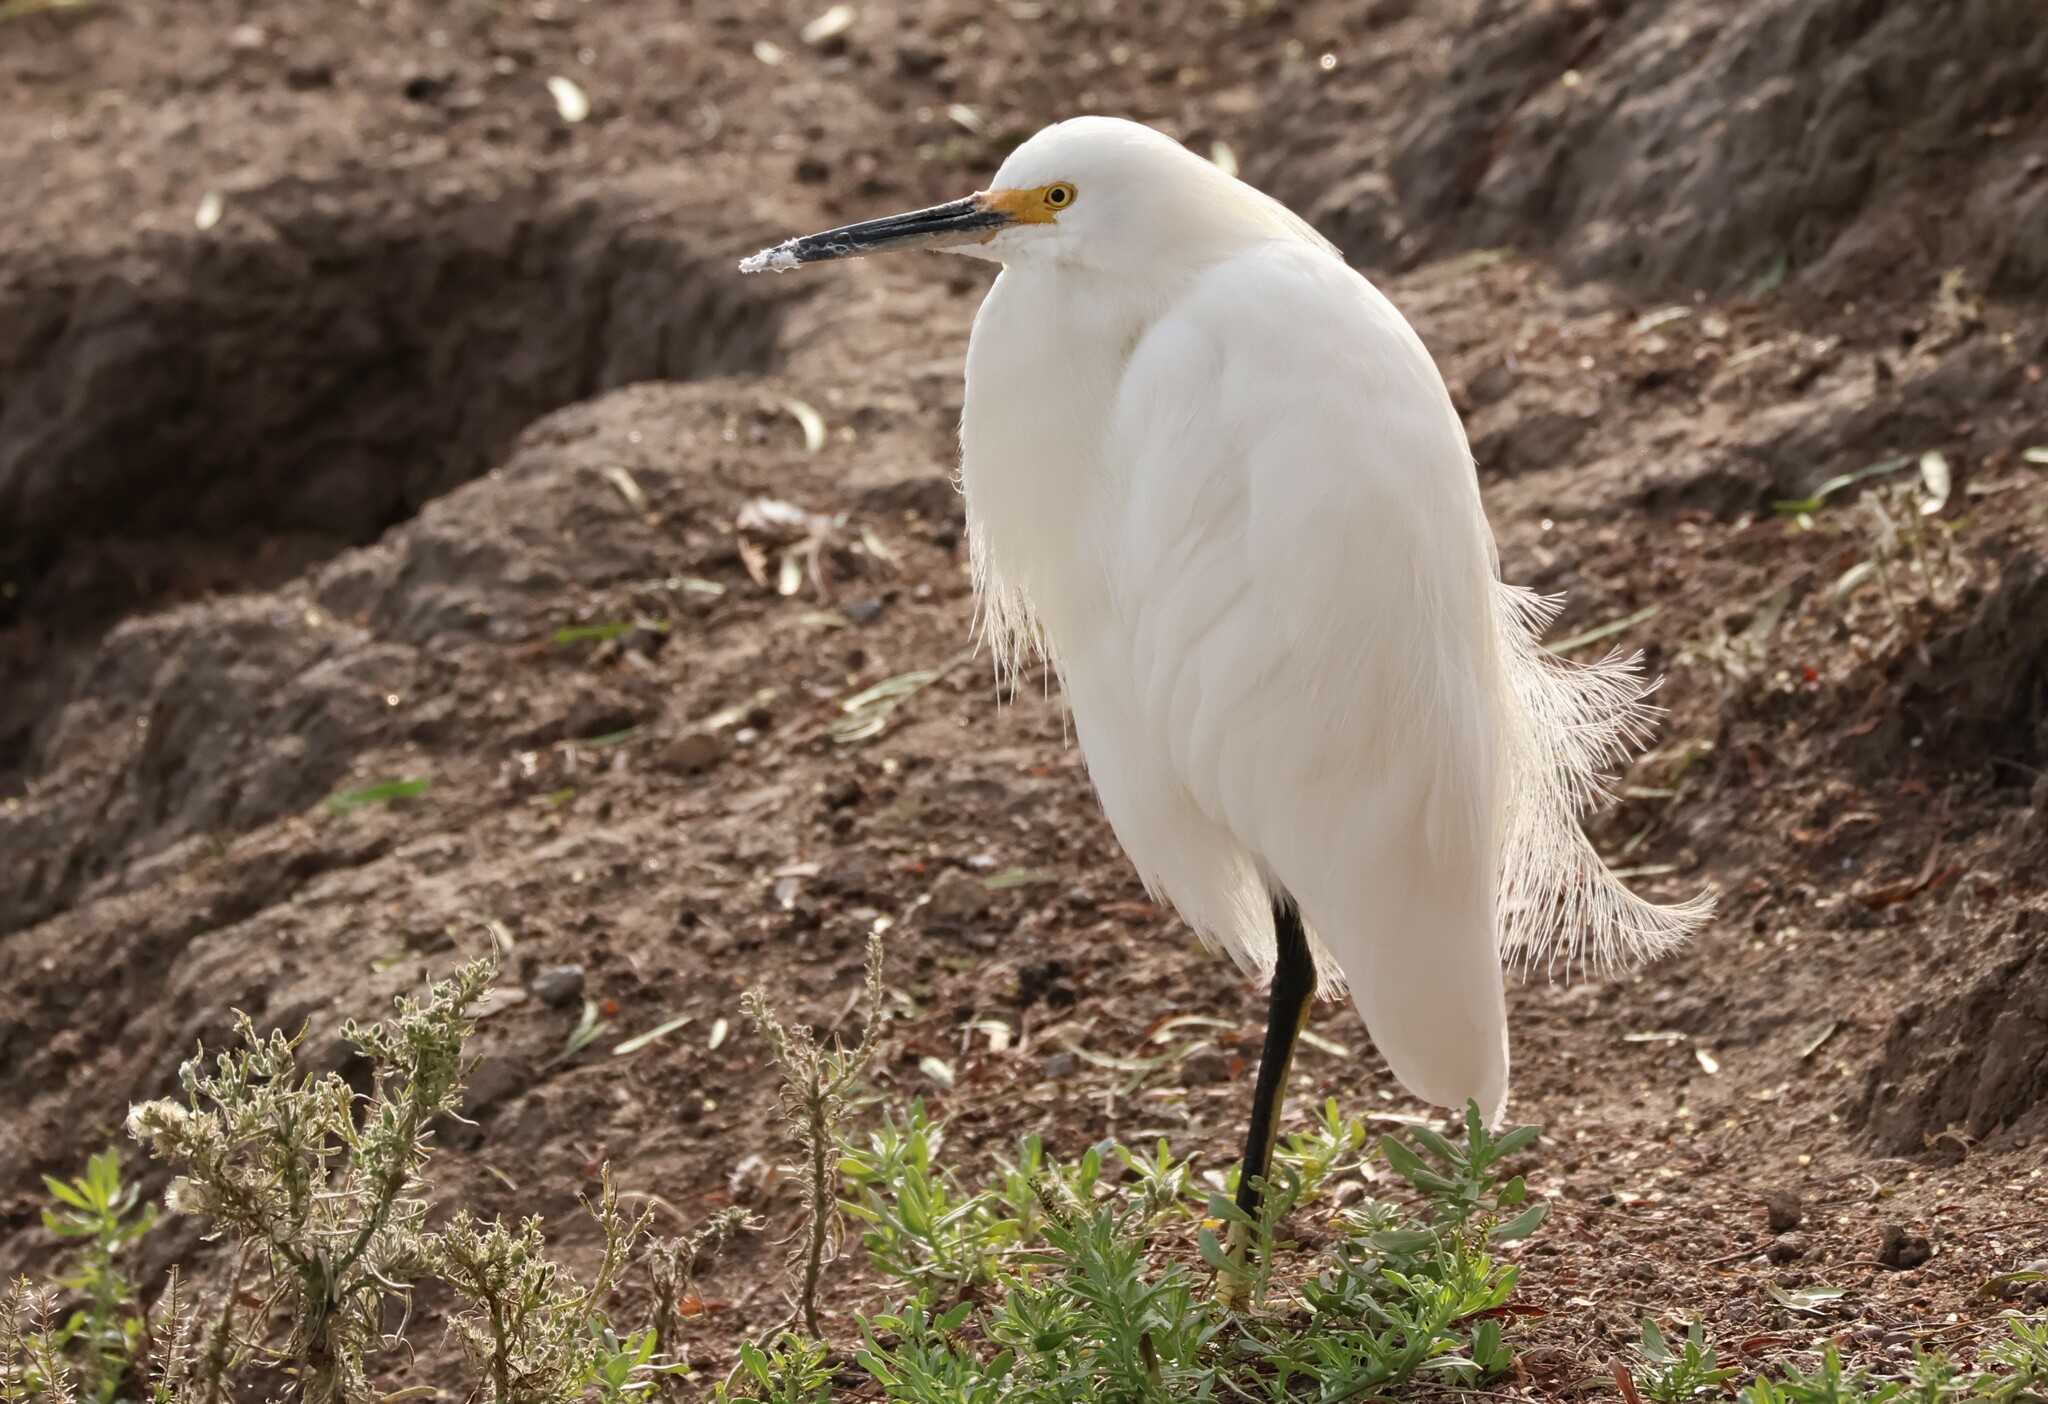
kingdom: Animalia
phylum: Chordata
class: Aves
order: Pelecaniformes
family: Ardeidae
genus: Egretta
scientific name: Egretta thula
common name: Snowy egret
